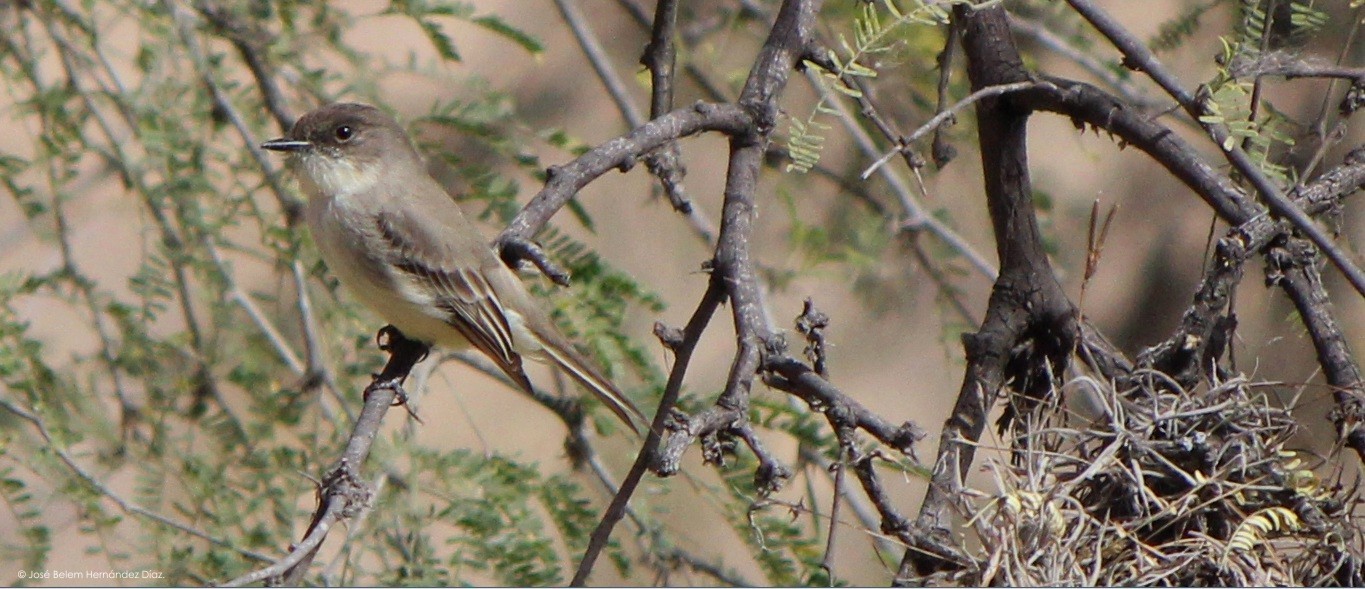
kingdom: Animalia
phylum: Chordata
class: Aves
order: Passeriformes
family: Tyrannidae
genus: Sayornis
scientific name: Sayornis phoebe
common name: Eastern phoebe
